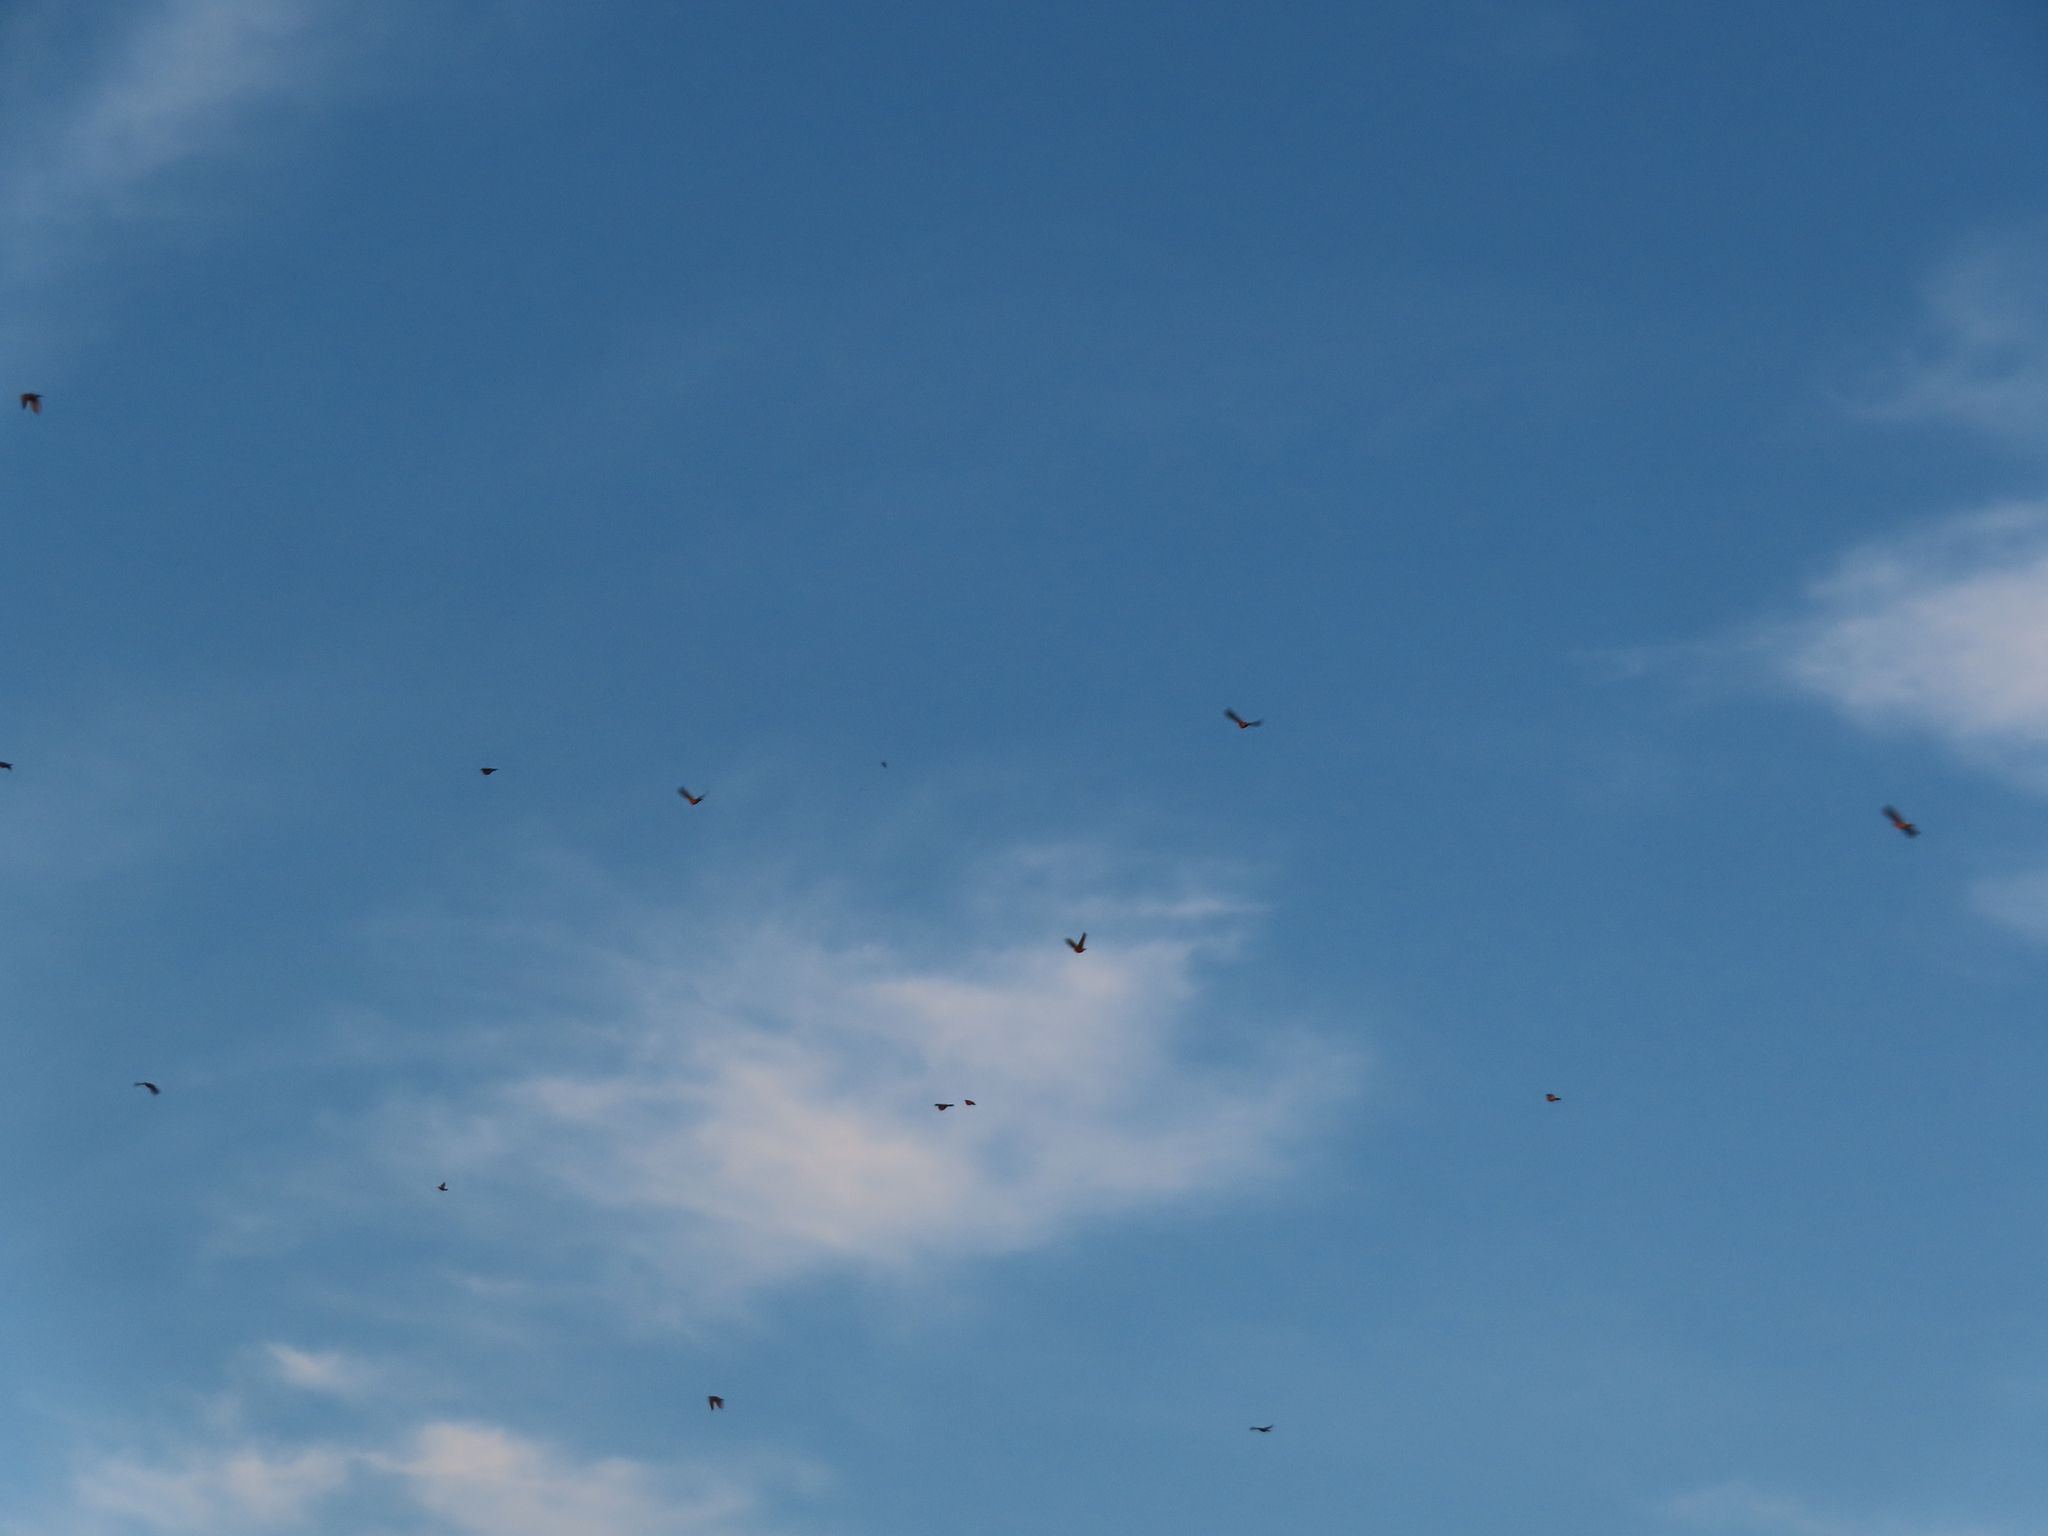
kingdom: Animalia
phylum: Chordata
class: Aves
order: Passeriformes
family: Turdidae
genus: Turdus
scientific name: Turdus migratorius
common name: American robin
